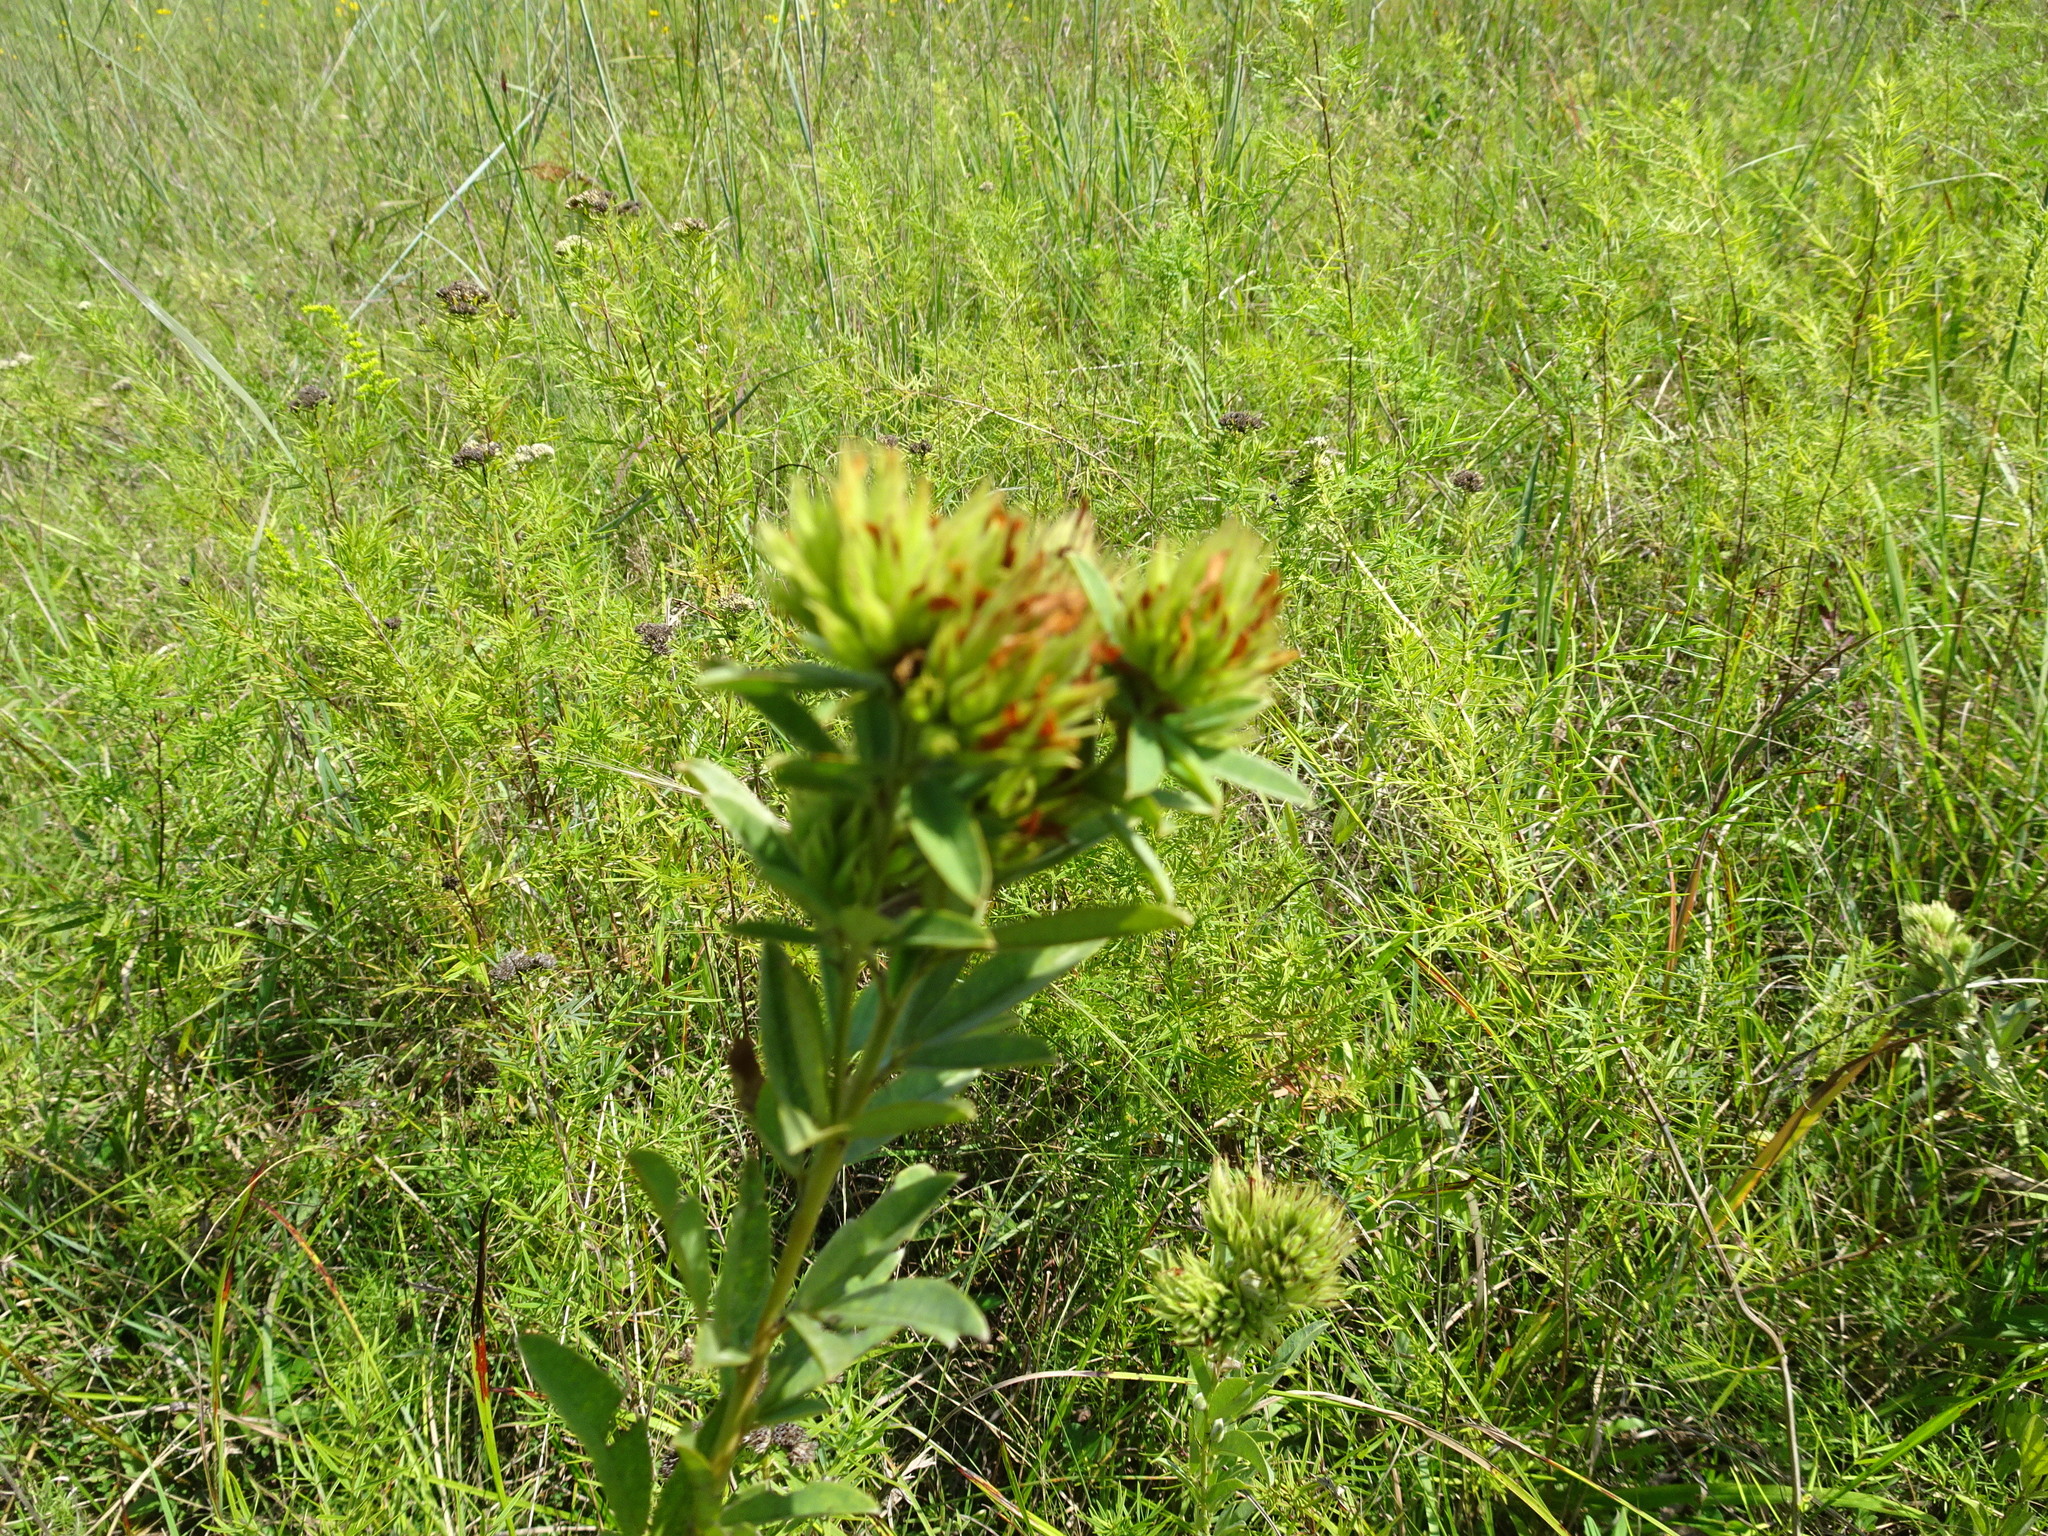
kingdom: Plantae
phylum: Tracheophyta
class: Magnoliopsida
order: Fabales
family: Fabaceae
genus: Lespedeza
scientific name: Lespedeza capitata
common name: Dusty clover
